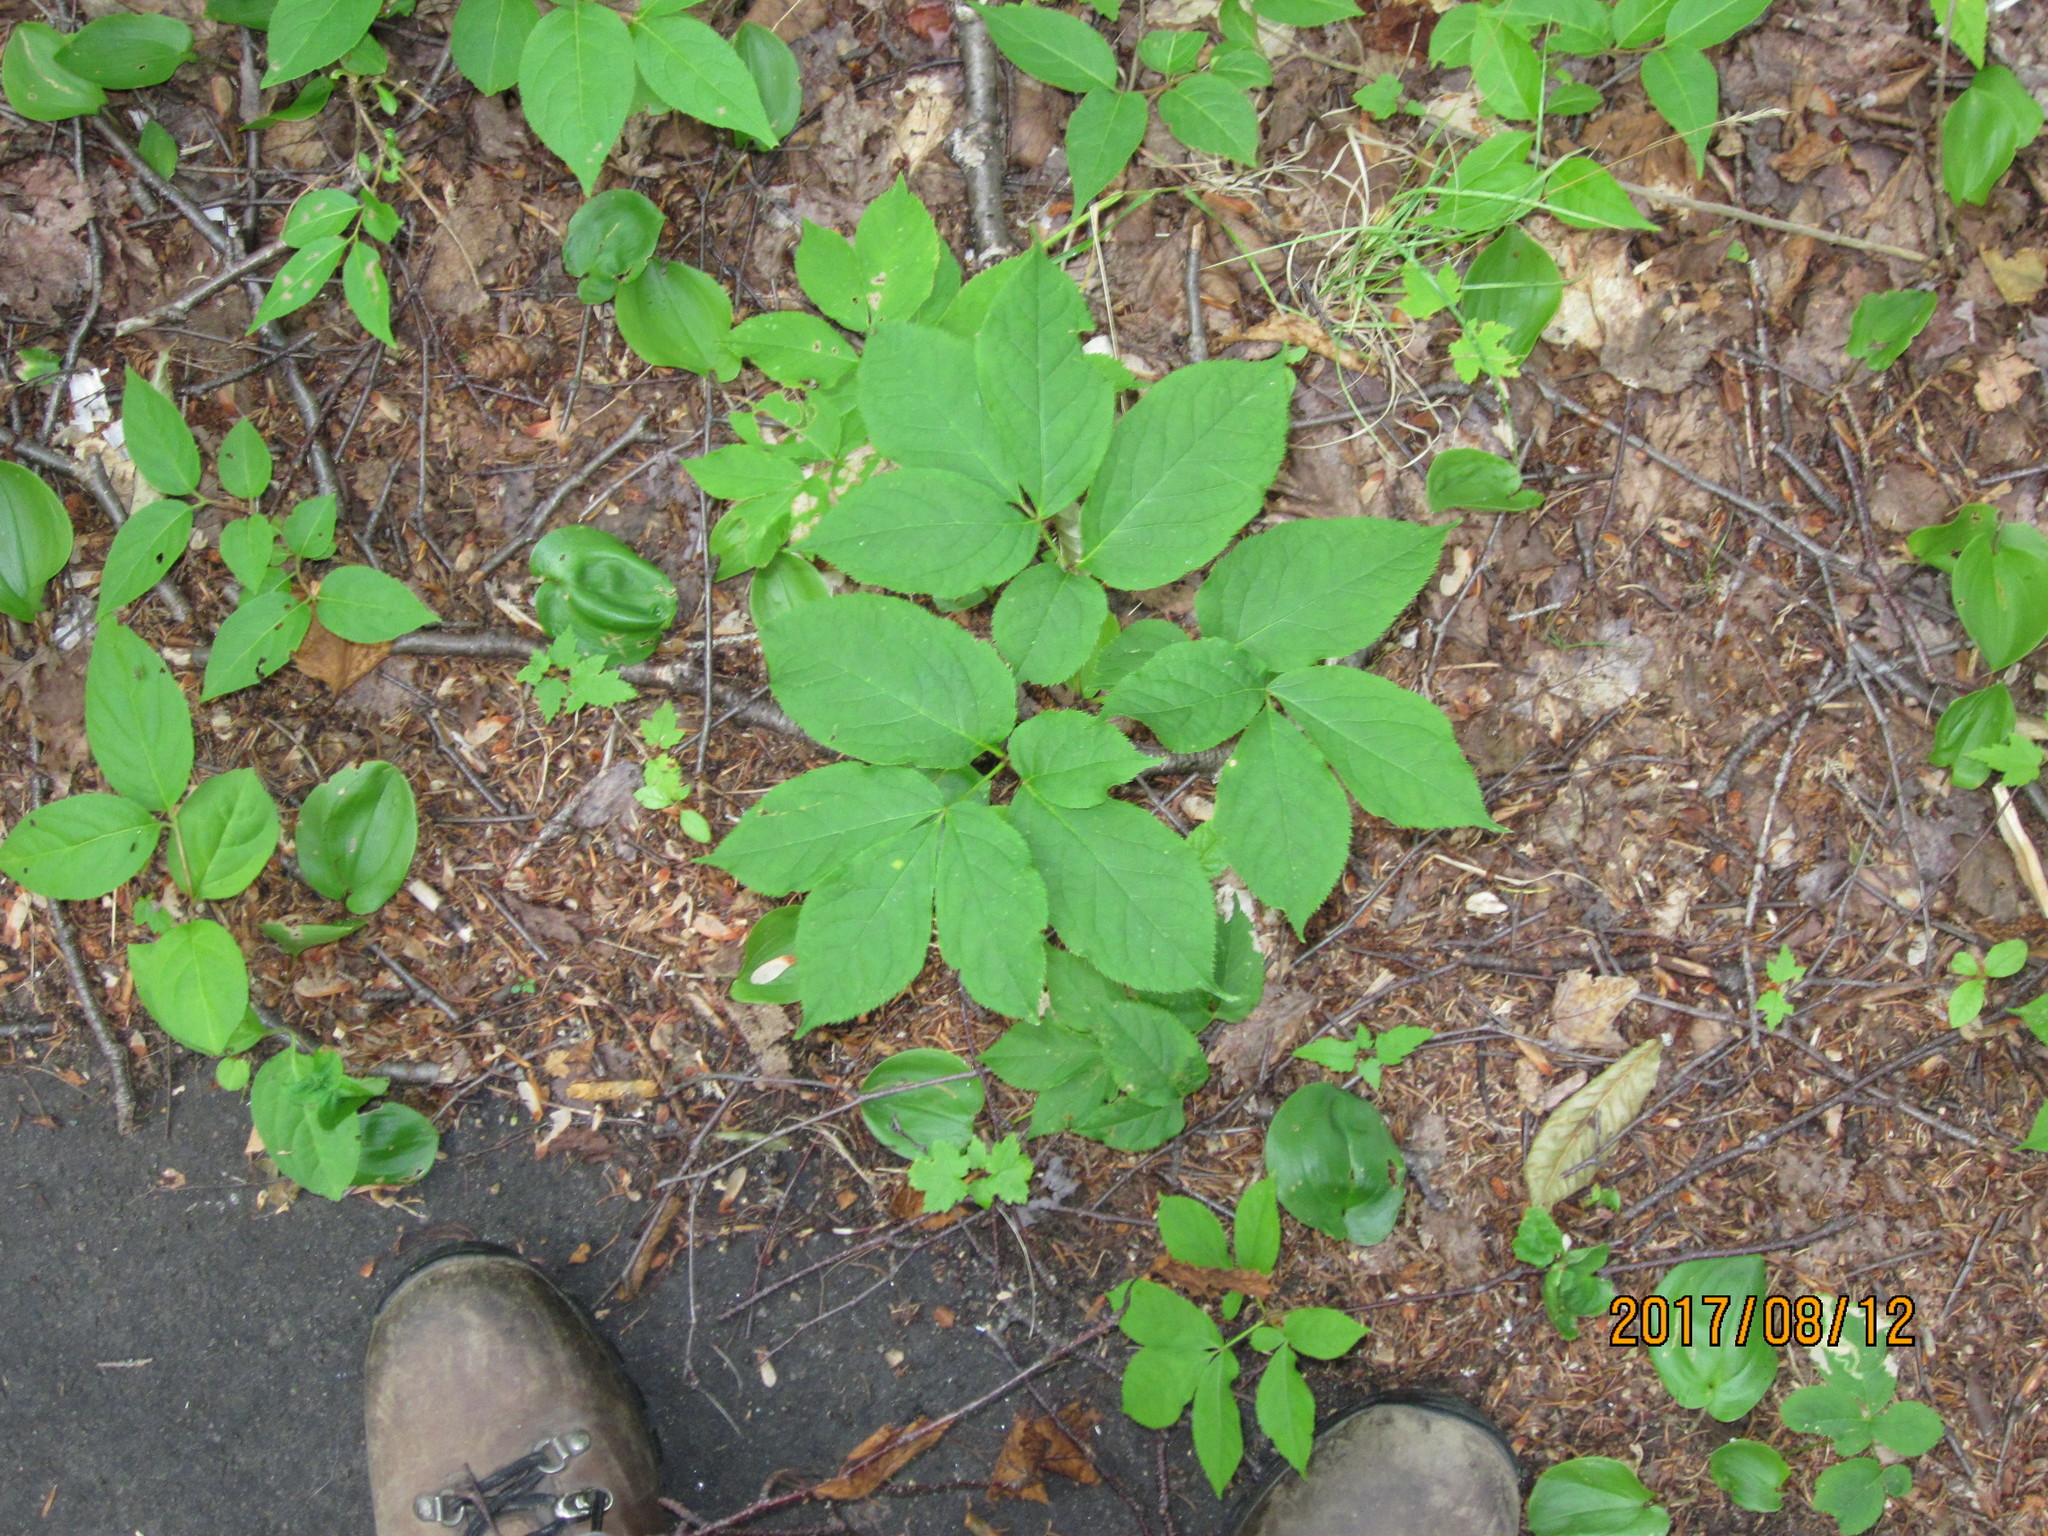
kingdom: Plantae
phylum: Tracheophyta
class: Magnoliopsida
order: Apiales
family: Araliaceae
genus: Aralia
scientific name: Aralia nudicaulis
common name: Wild sarsaparilla
